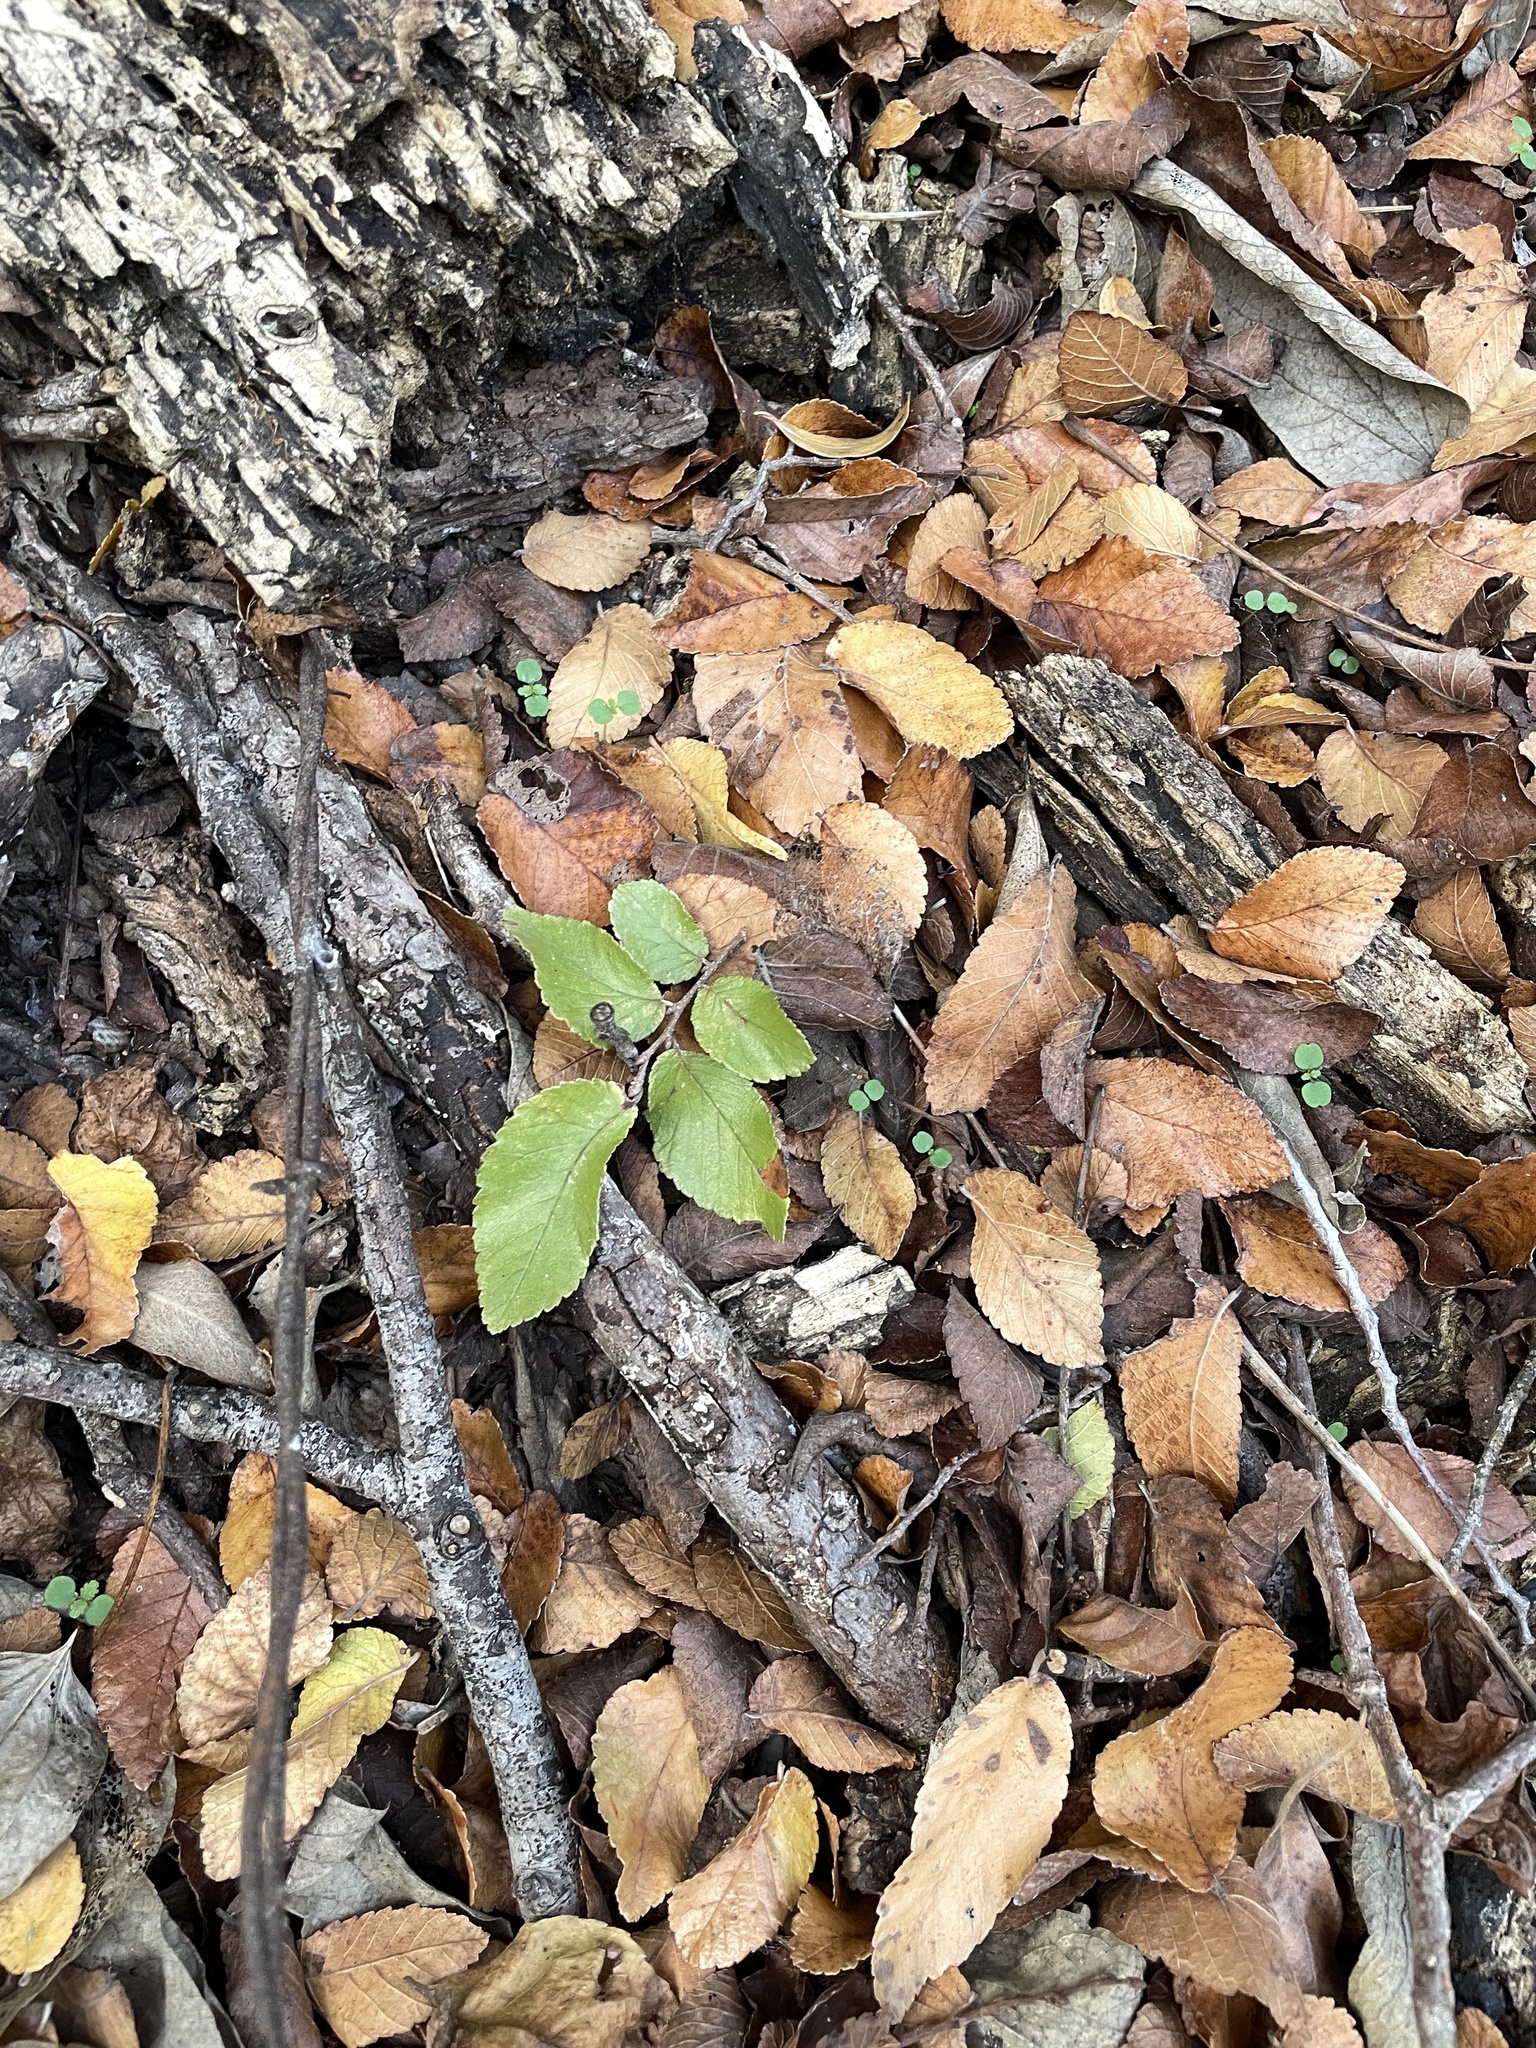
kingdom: Plantae
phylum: Tracheophyta
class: Magnoliopsida
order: Rosales
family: Ulmaceae
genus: Ulmus
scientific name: Ulmus crassifolia
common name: Basket elm
